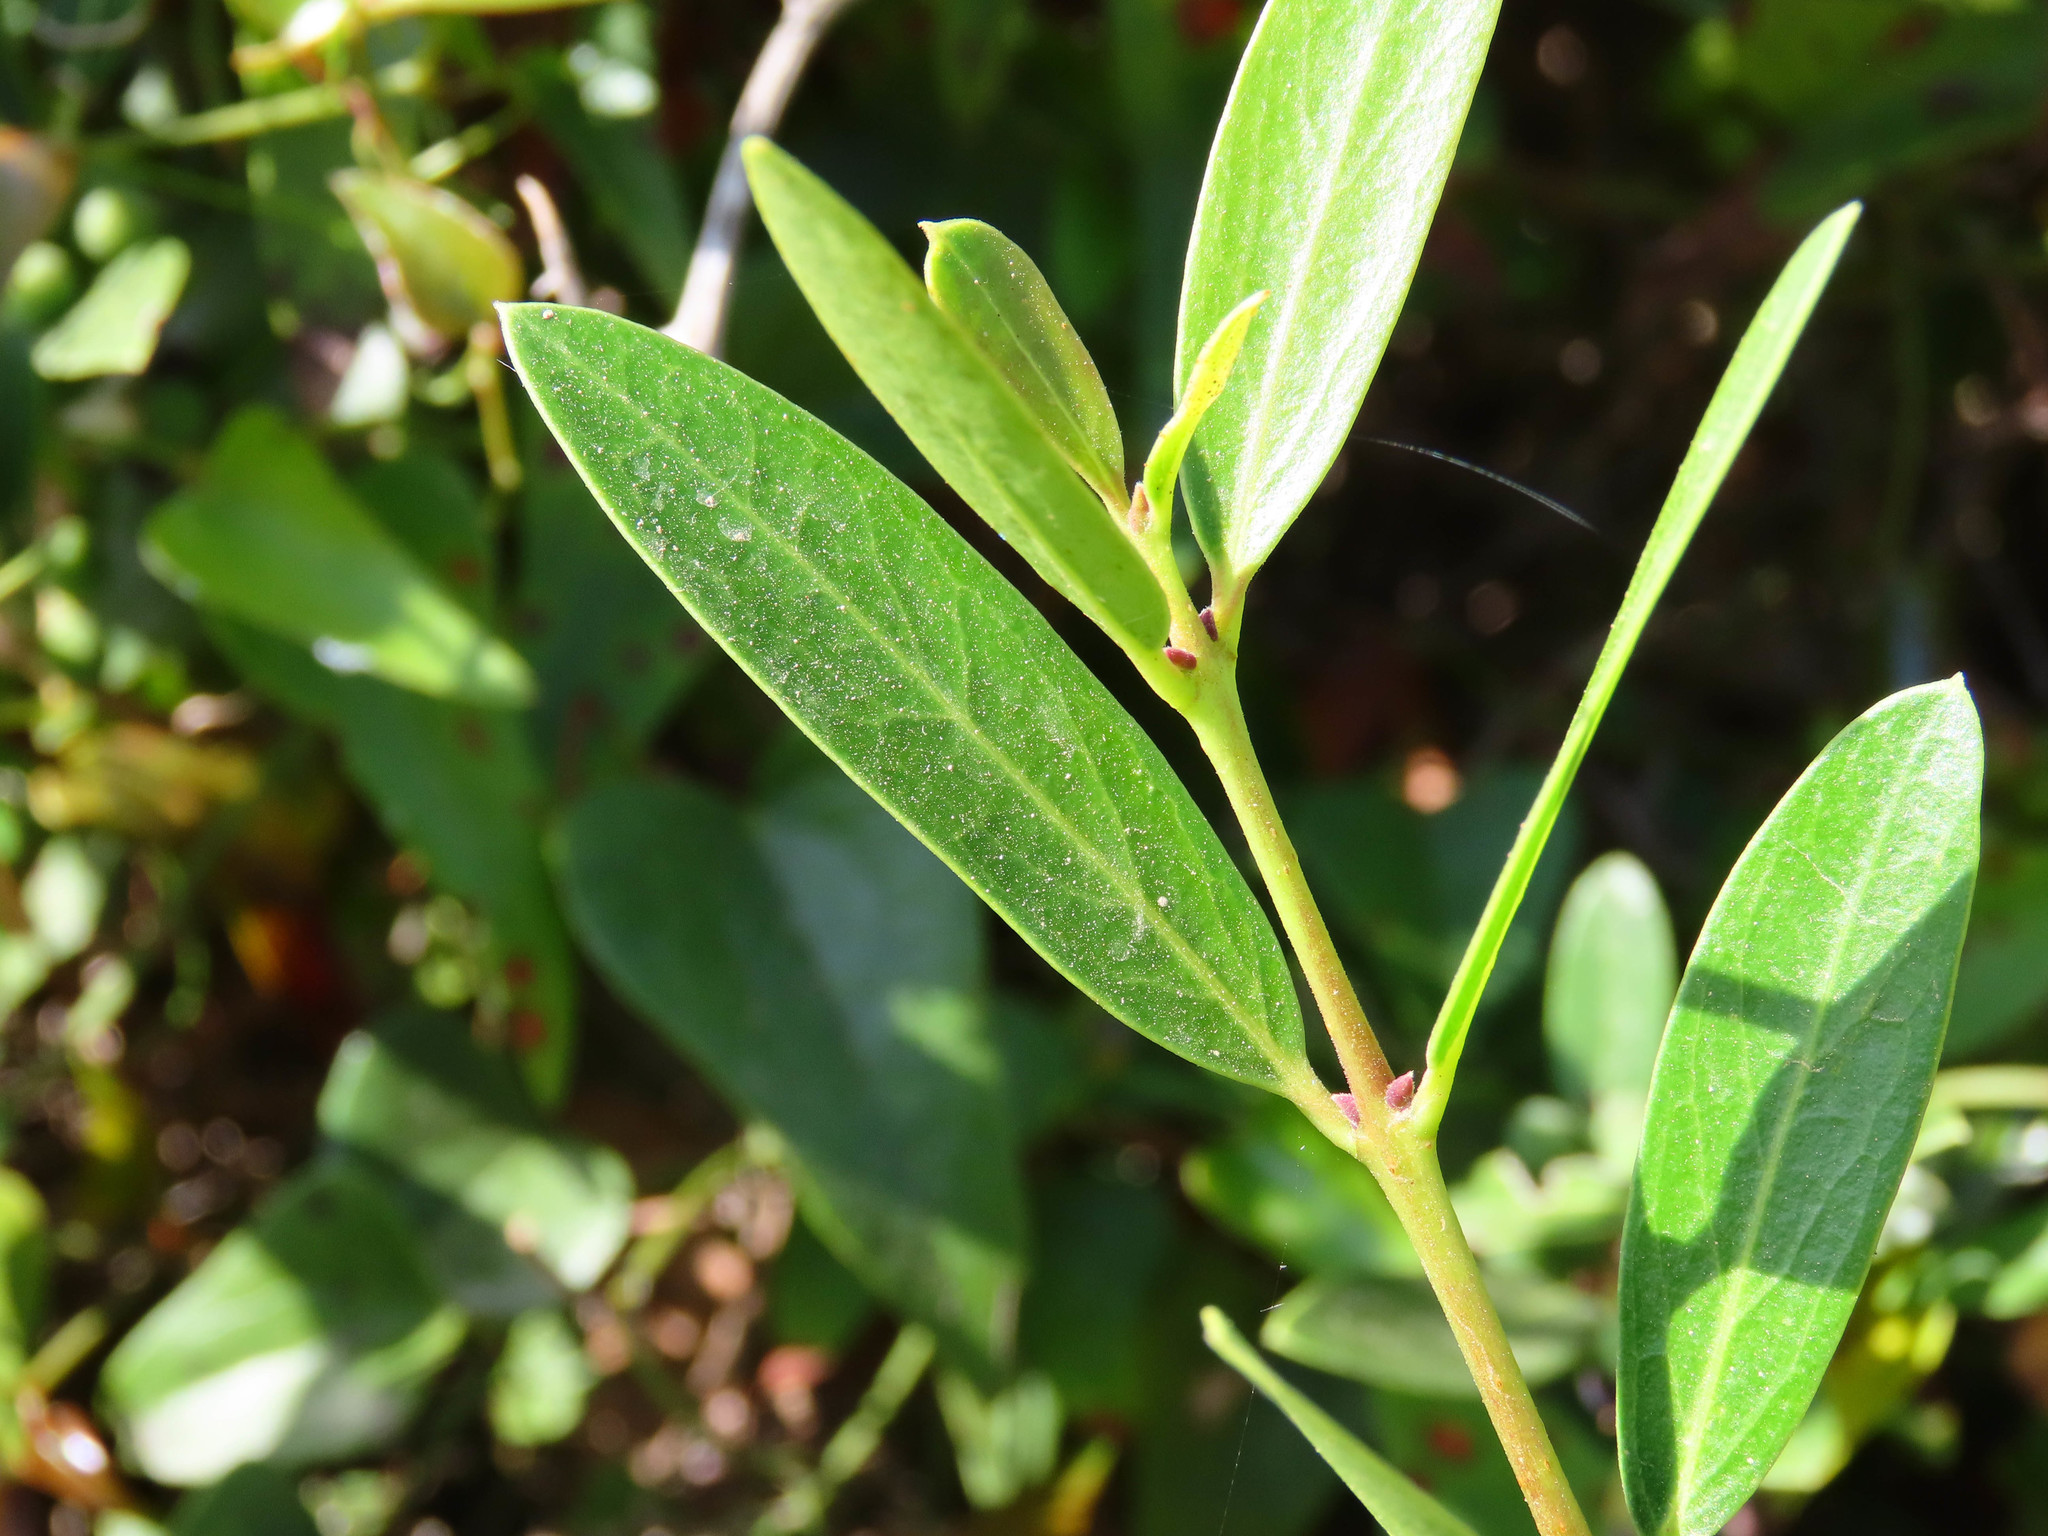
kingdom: Plantae
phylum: Tracheophyta
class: Magnoliopsida
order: Lamiales
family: Oleaceae
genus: Phillyrea
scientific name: Phillyrea angustifolia
